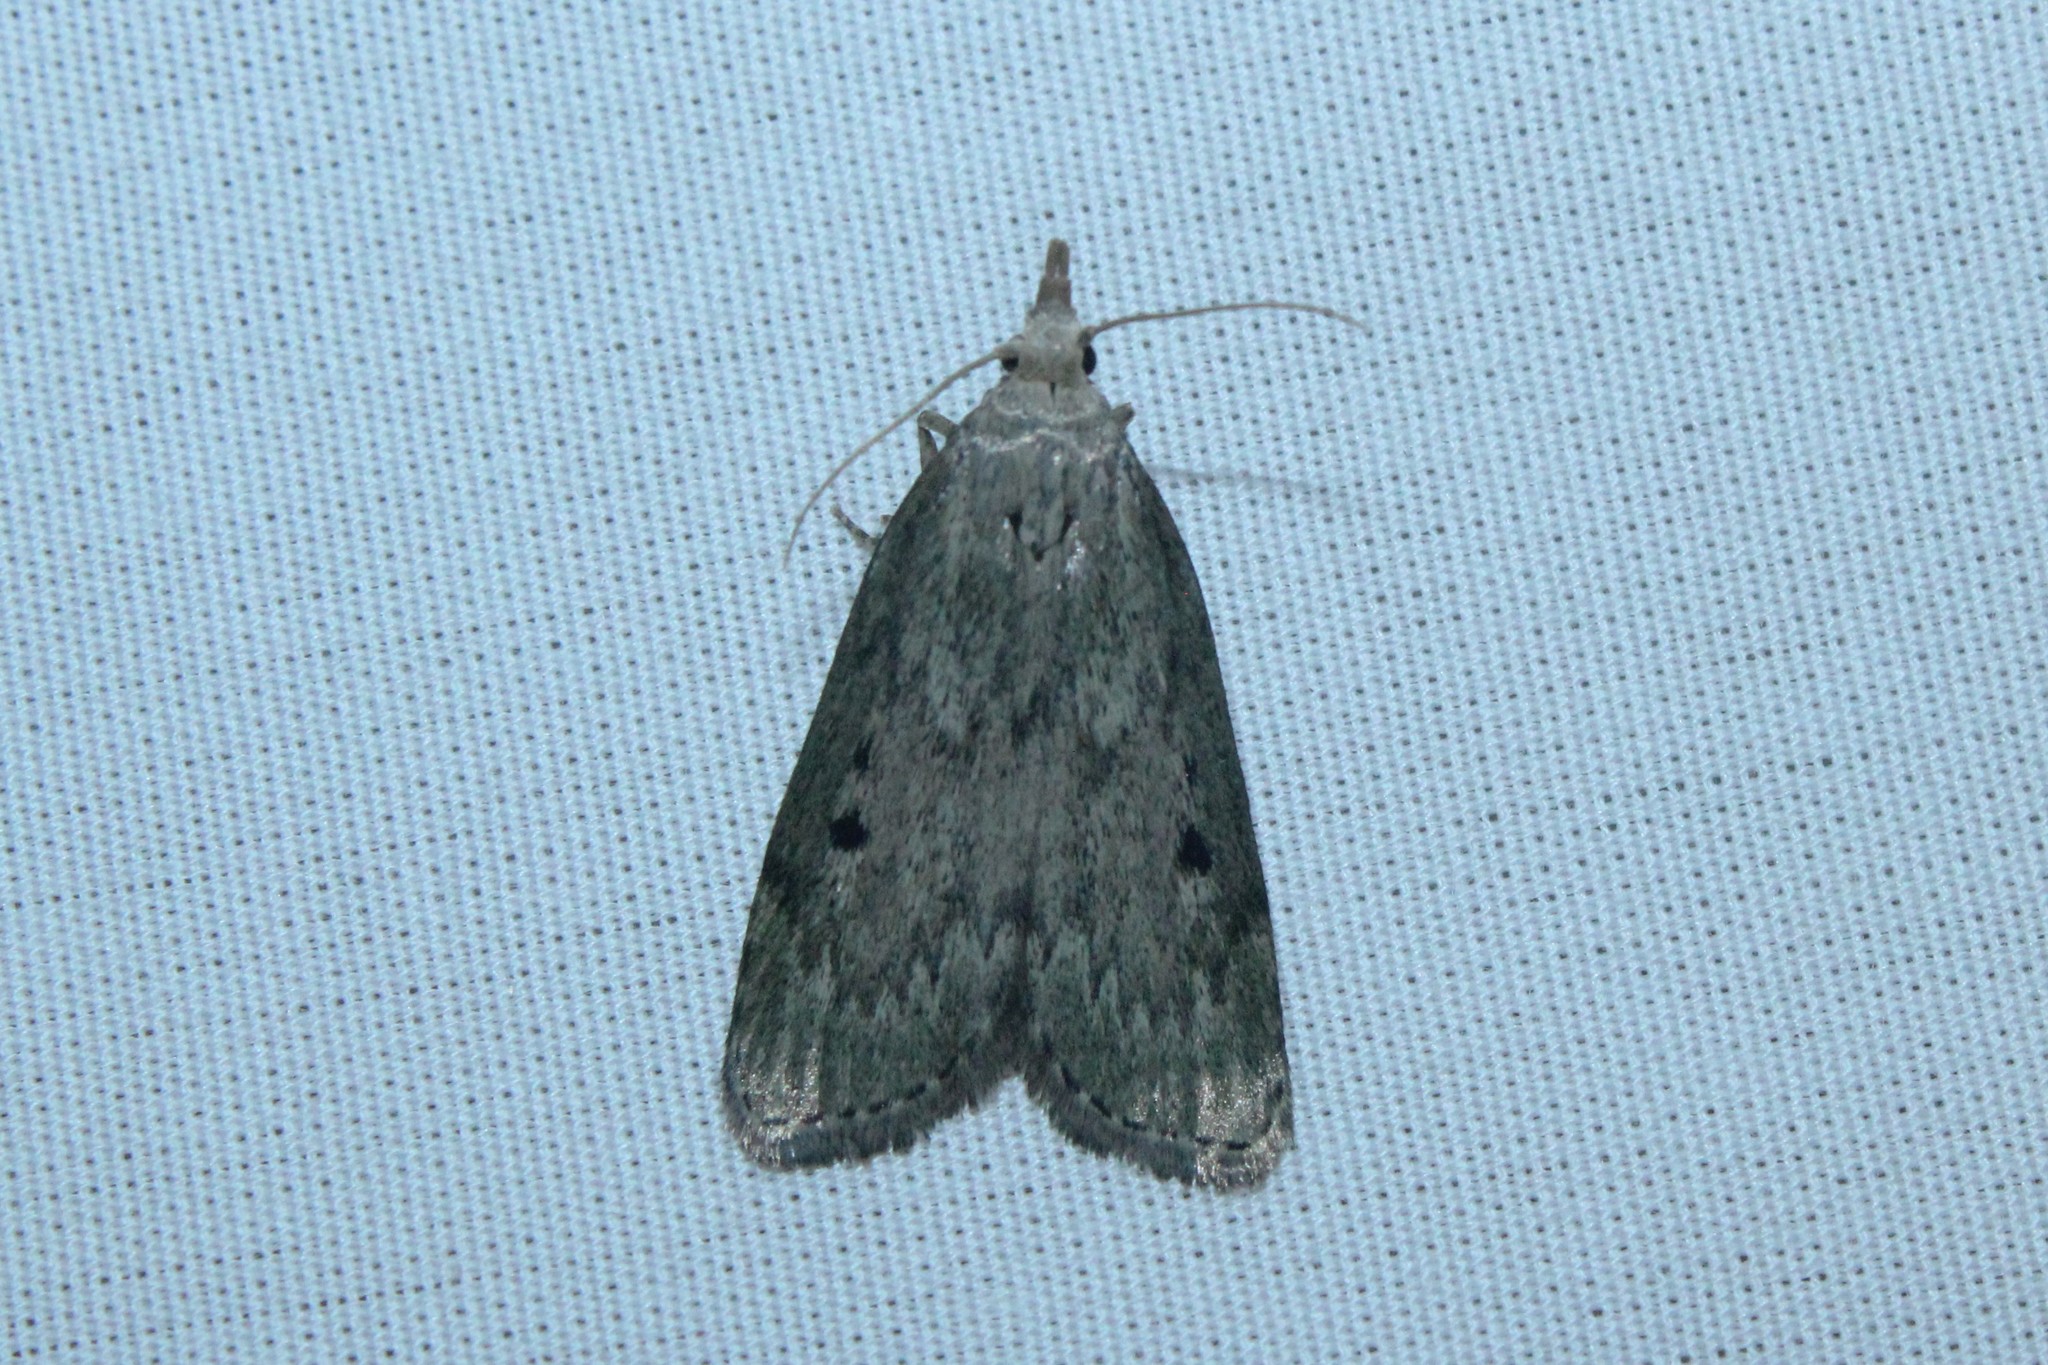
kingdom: Animalia
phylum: Arthropoda
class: Insecta
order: Lepidoptera
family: Pyralidae
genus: Aphomia
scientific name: Aphomia sociella
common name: Bee moth
